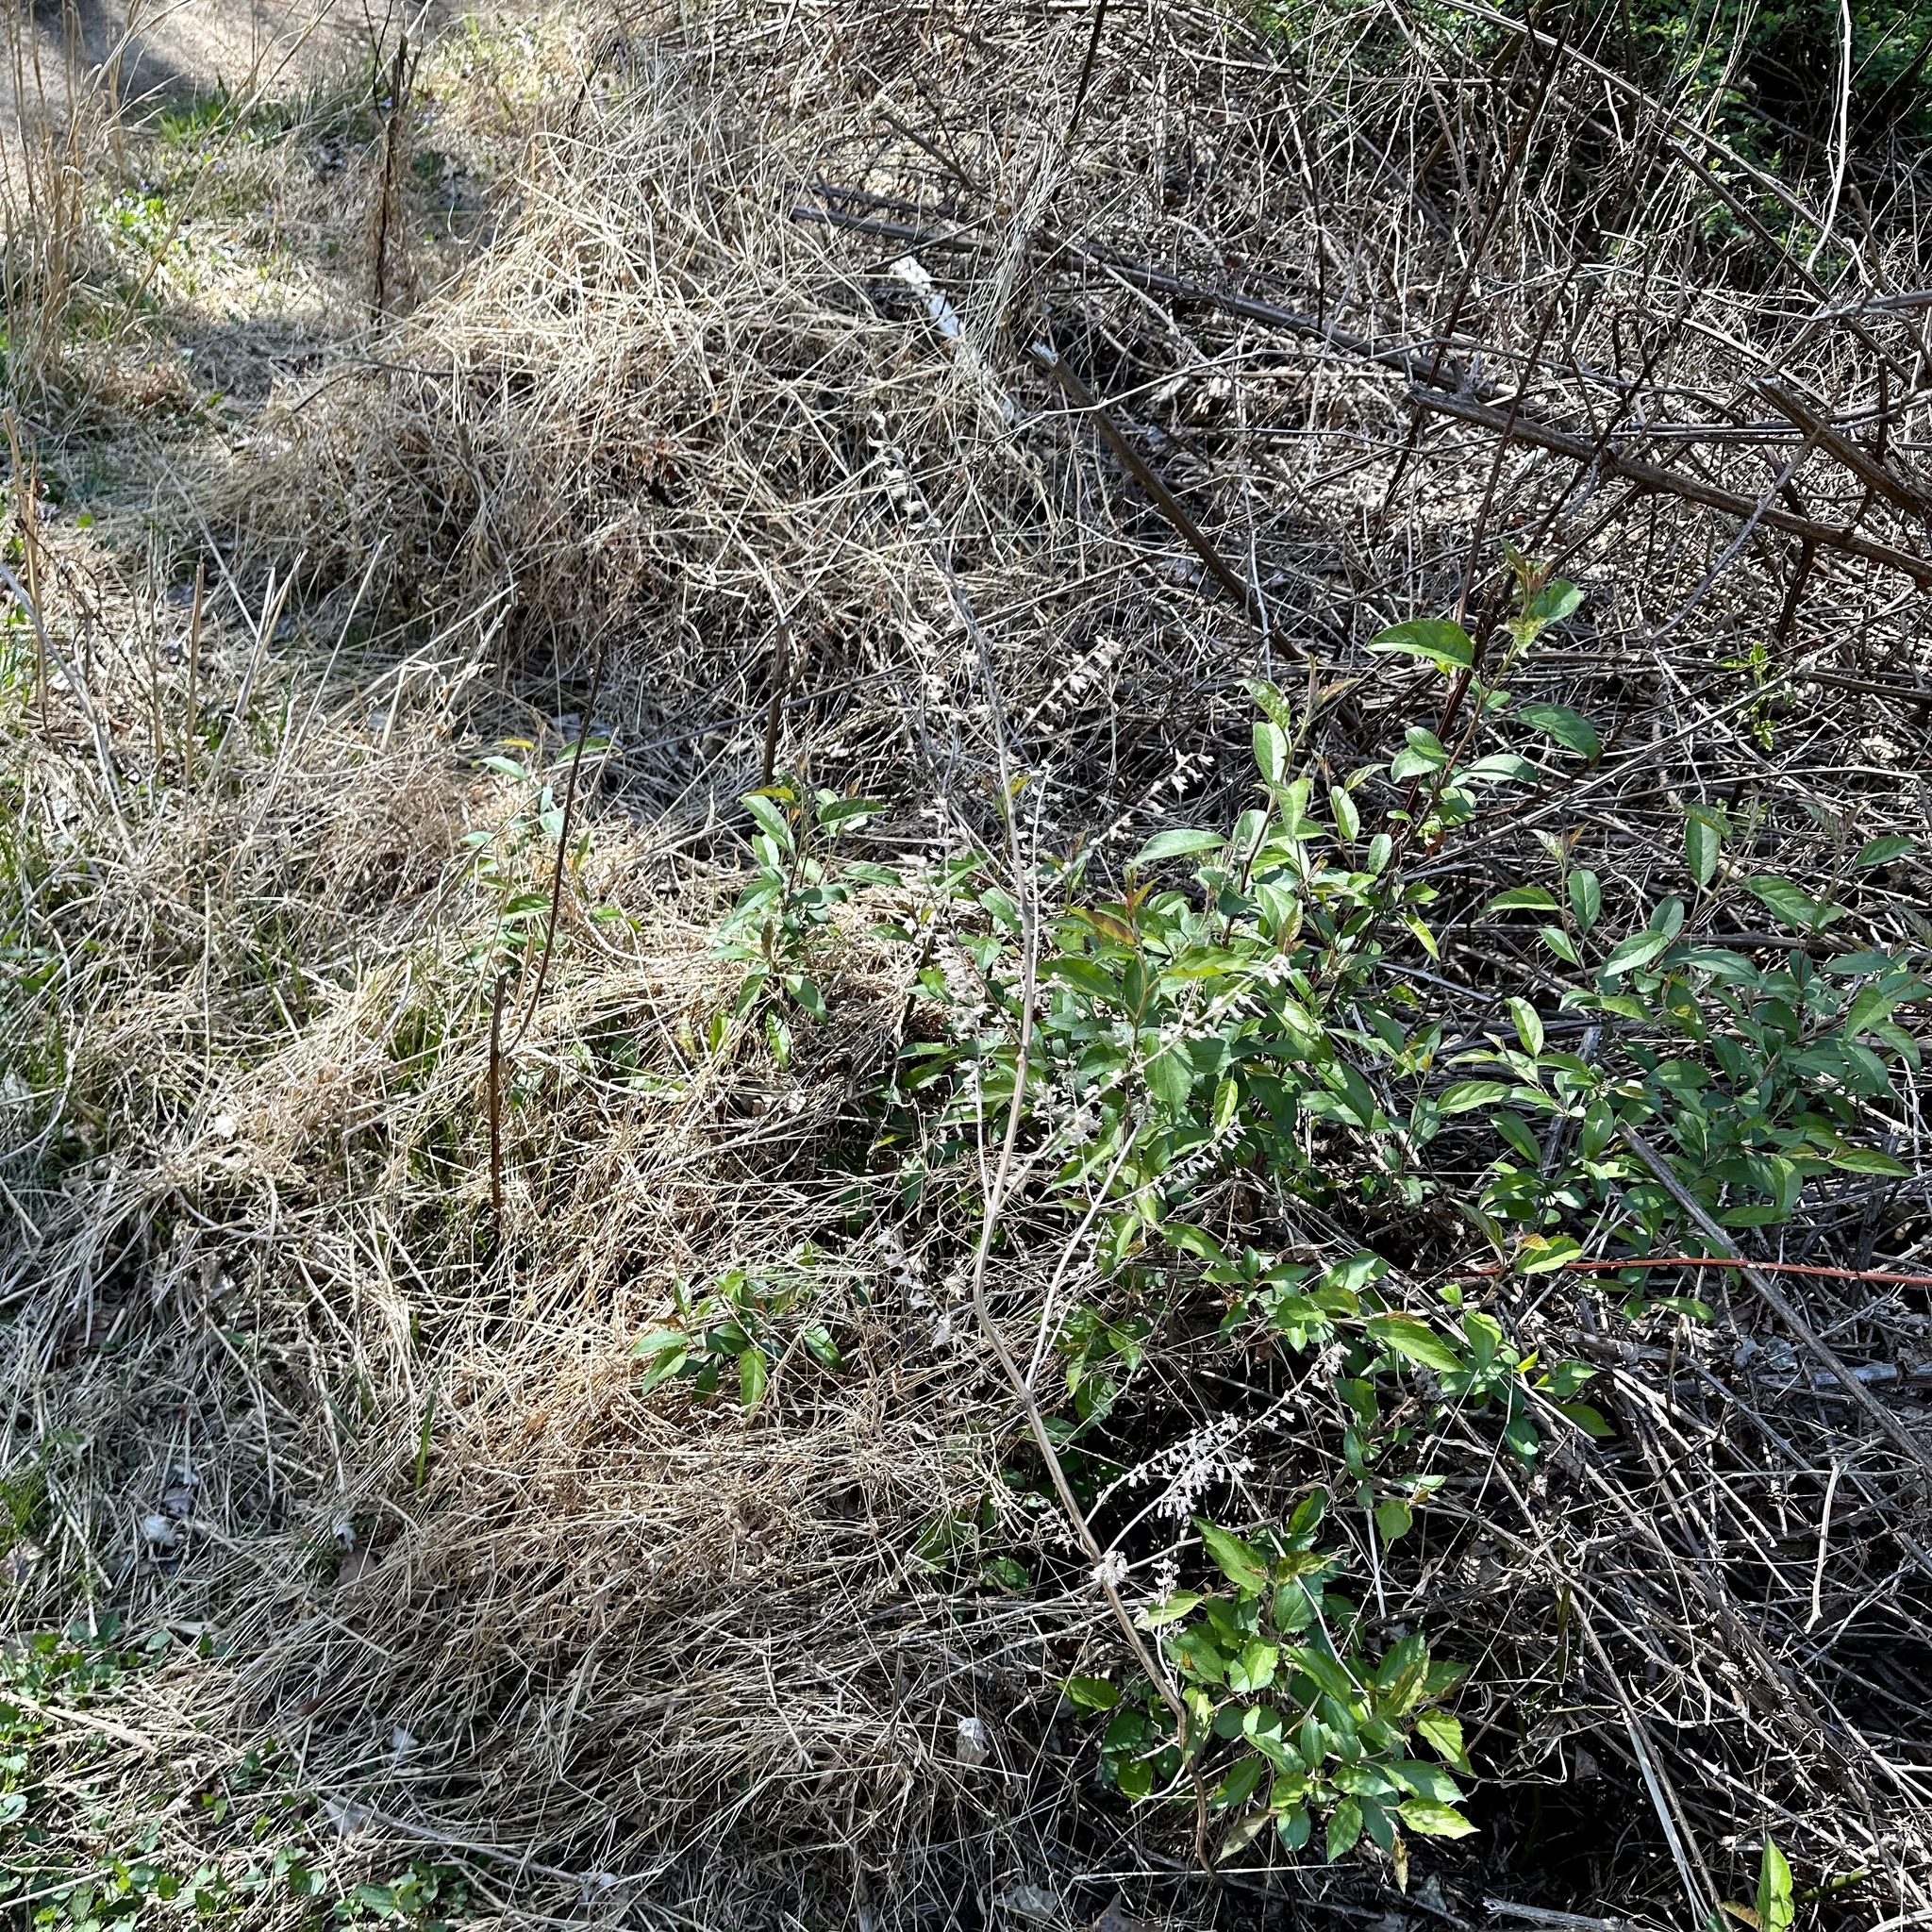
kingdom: Plantae
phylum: Tracheophyta
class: Magnoliopsida
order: Lamiales
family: Lamiaceae
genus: Perilla
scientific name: Perilla frutescens
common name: Perilla
